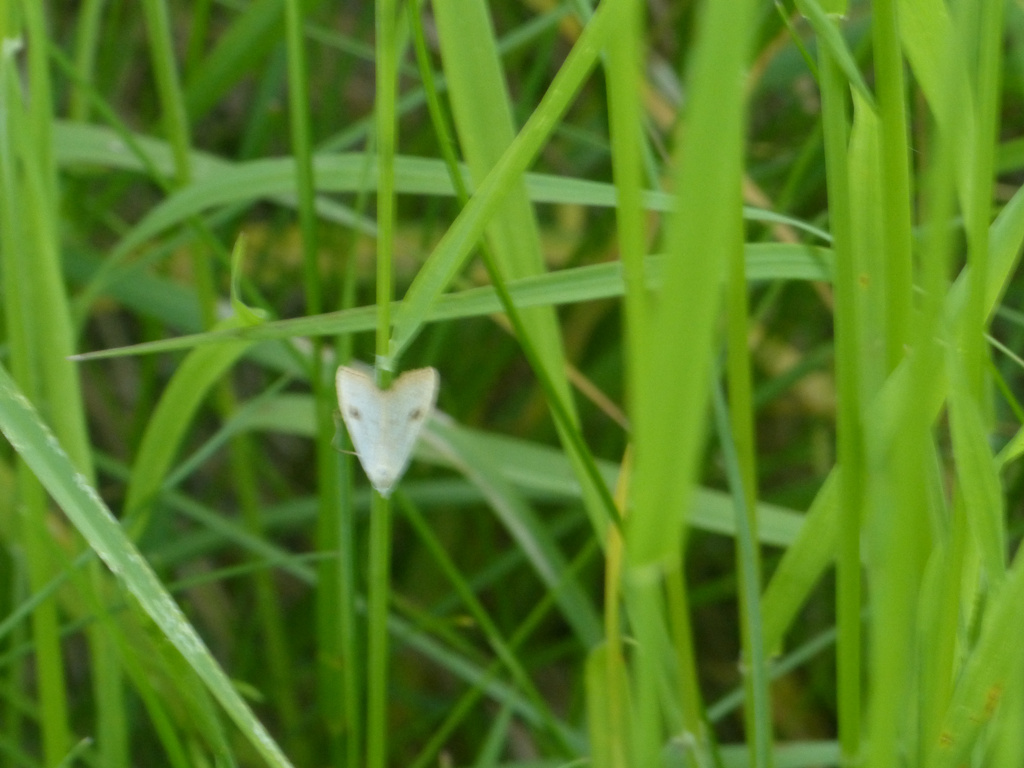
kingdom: Animalia
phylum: Arthropoda
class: Insecta
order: Lepidoptera
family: Erebidae
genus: Rivula
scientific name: Rivula sericealis
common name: Straw dot
